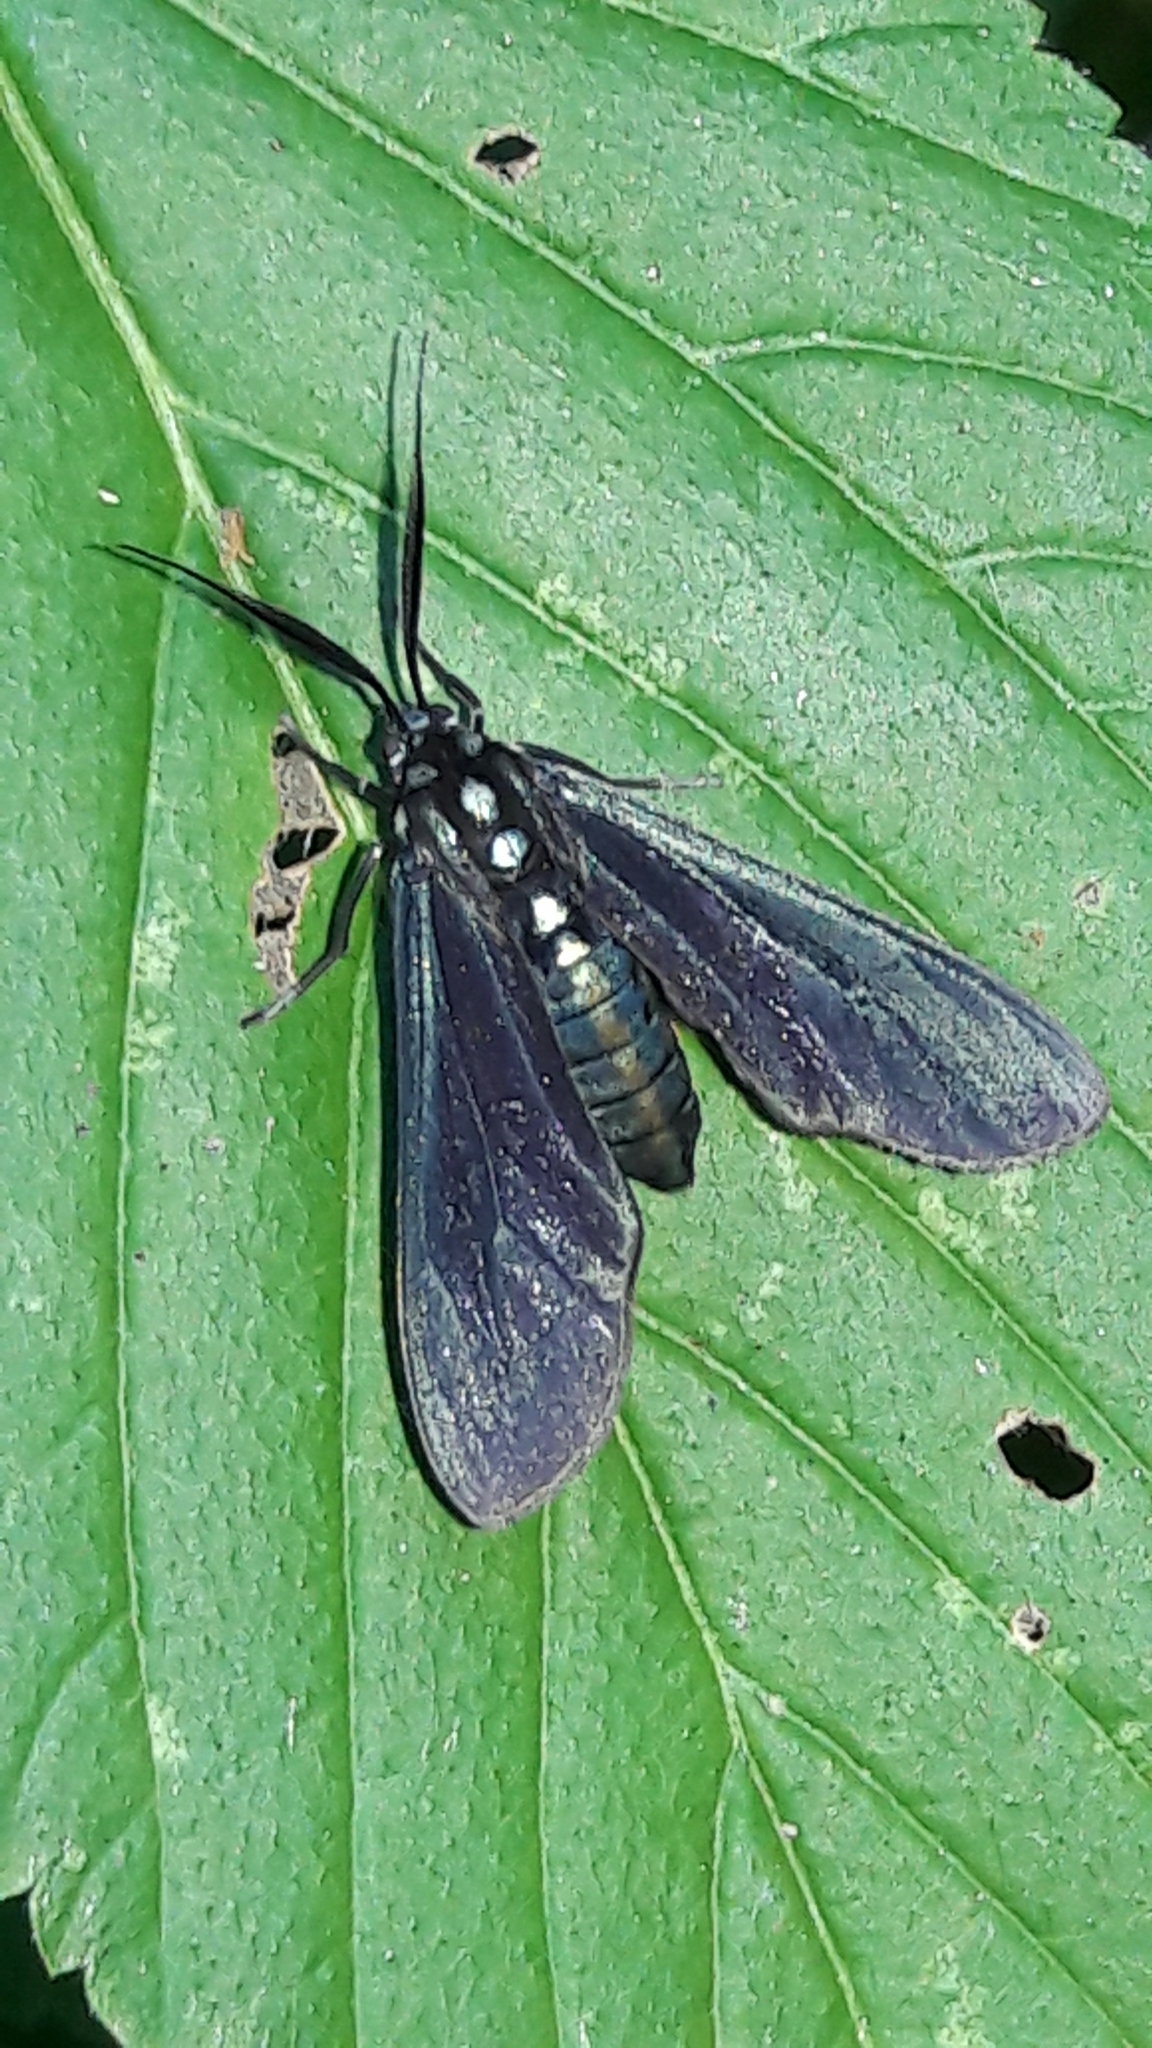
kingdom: Animalia
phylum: Arthropoda
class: Insecta
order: Lepidoptera
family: Erebidae
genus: Antichloris
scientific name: Antichloris eriphia
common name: Banana stowaway
